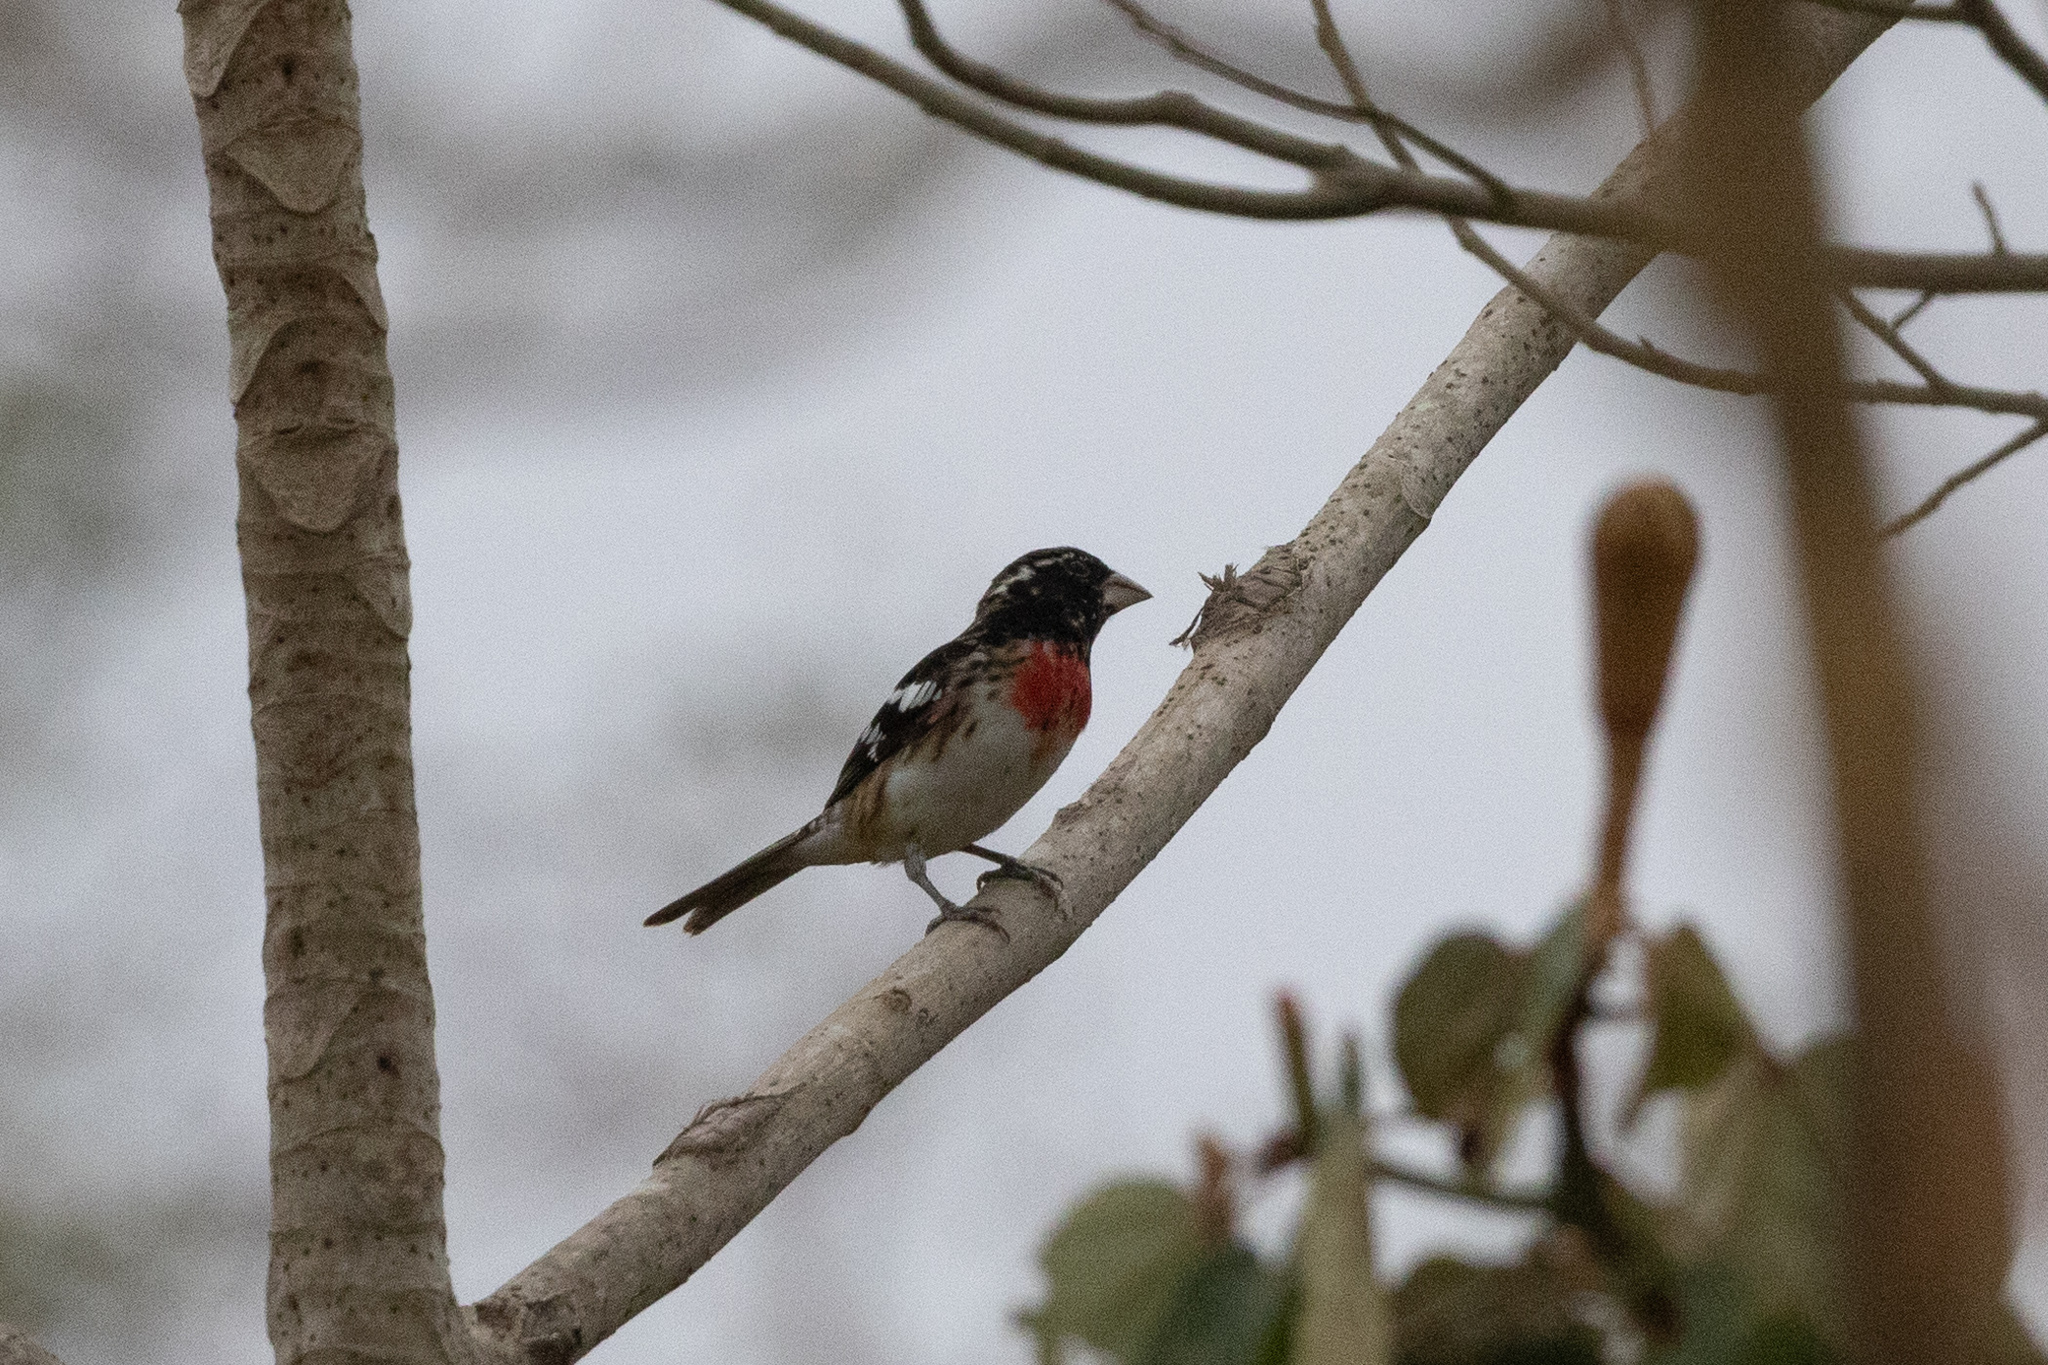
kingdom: Animalia
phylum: Chordata
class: Aves
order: Passeriformes
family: Cardinalidae
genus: Pheucticus
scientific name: Pheucticus ludovicianus
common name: Rose-breasted grosbeak
